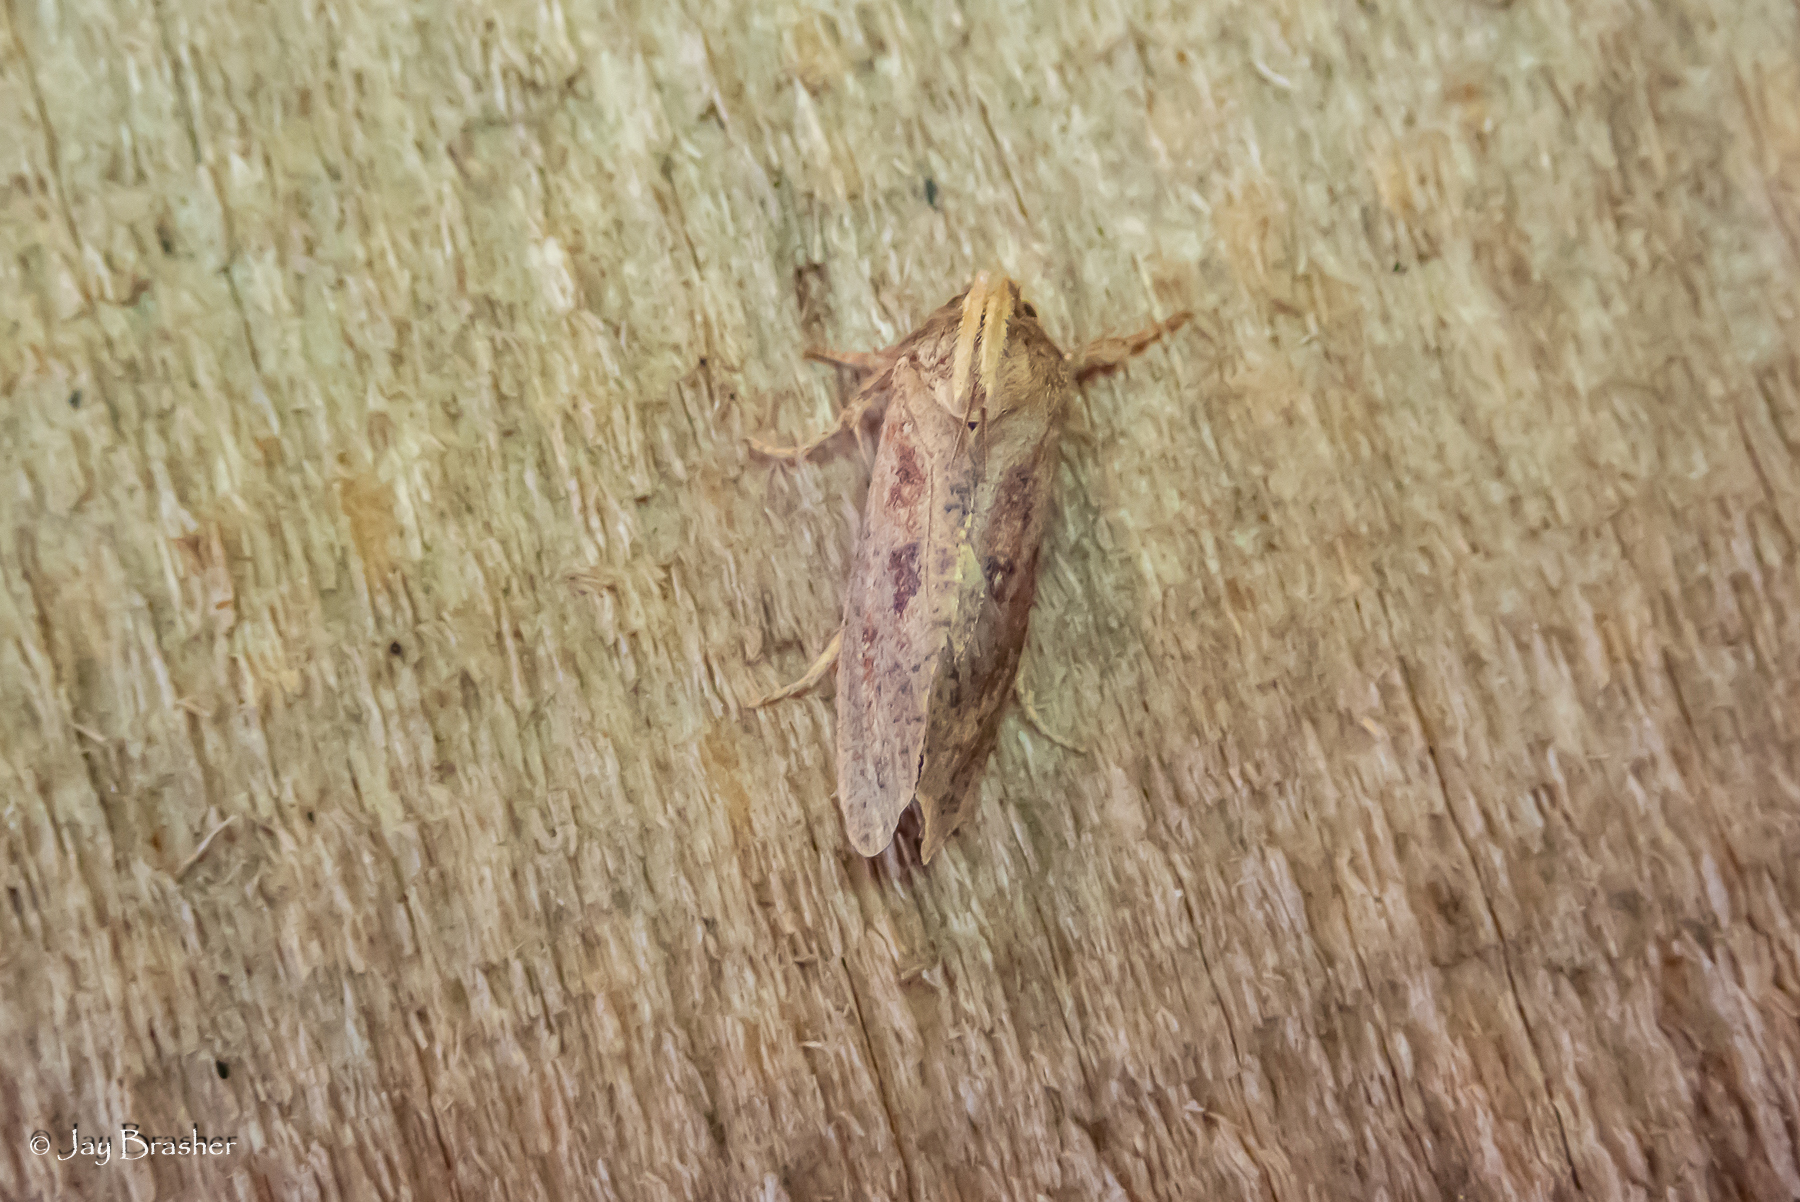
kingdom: Animalia
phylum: Arthropoda
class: Insecta
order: Lepidoptera
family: Tineidae
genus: Acrolophus
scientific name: Acrolophus plumifrontella
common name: Eastern grass tubeworm moth
